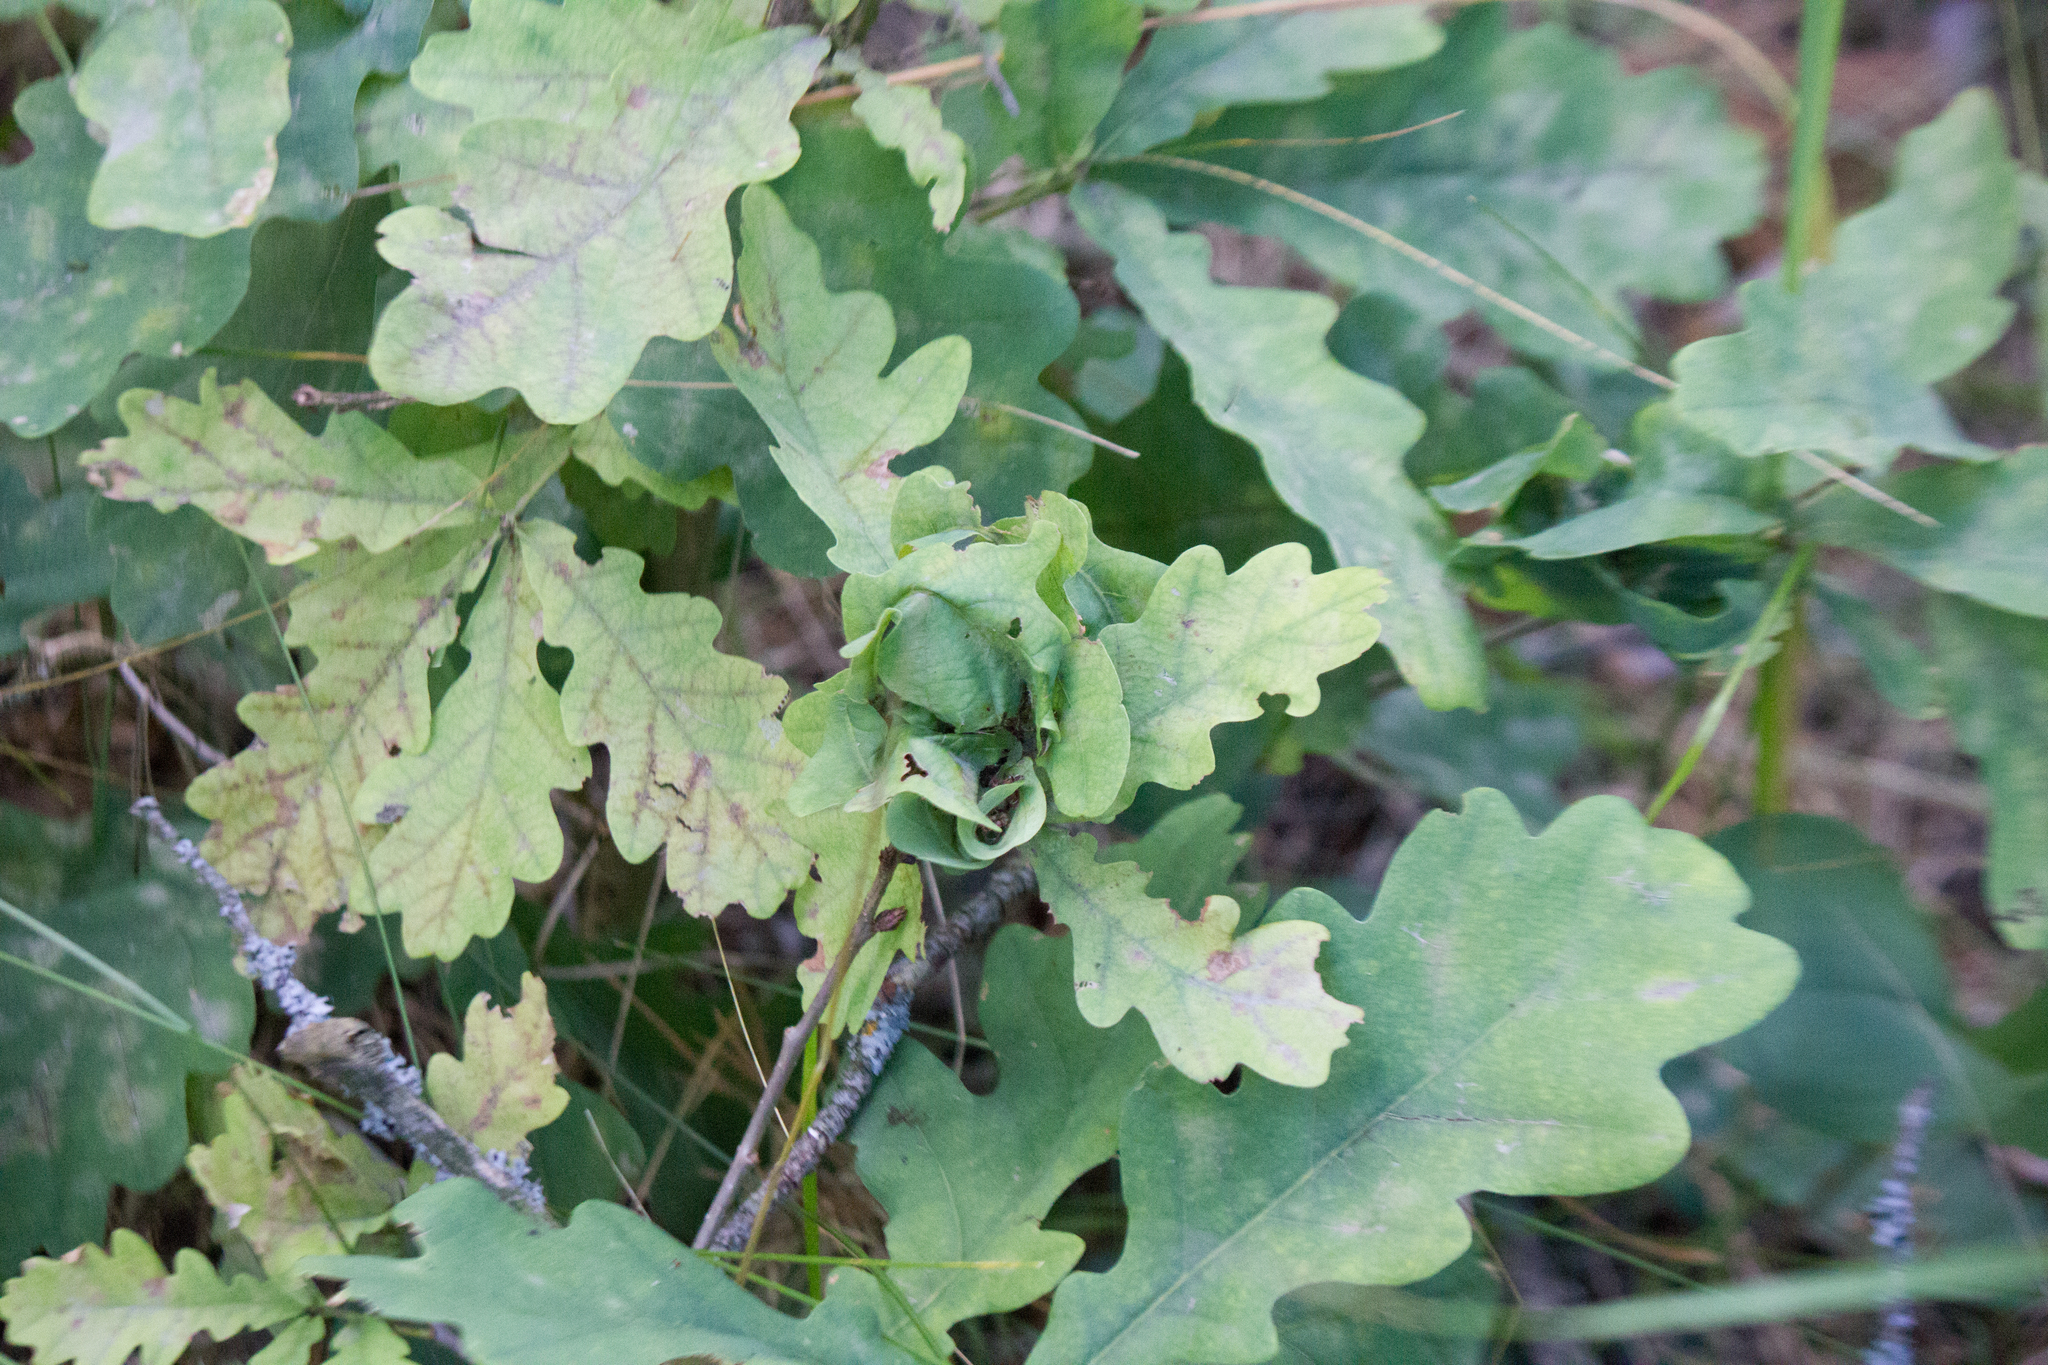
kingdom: Plantae
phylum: Tracheophyta
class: Magnoliopsida
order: Fagales
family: Fagaceae
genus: Quercus
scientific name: Quercus robur
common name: Pedunculate oak
